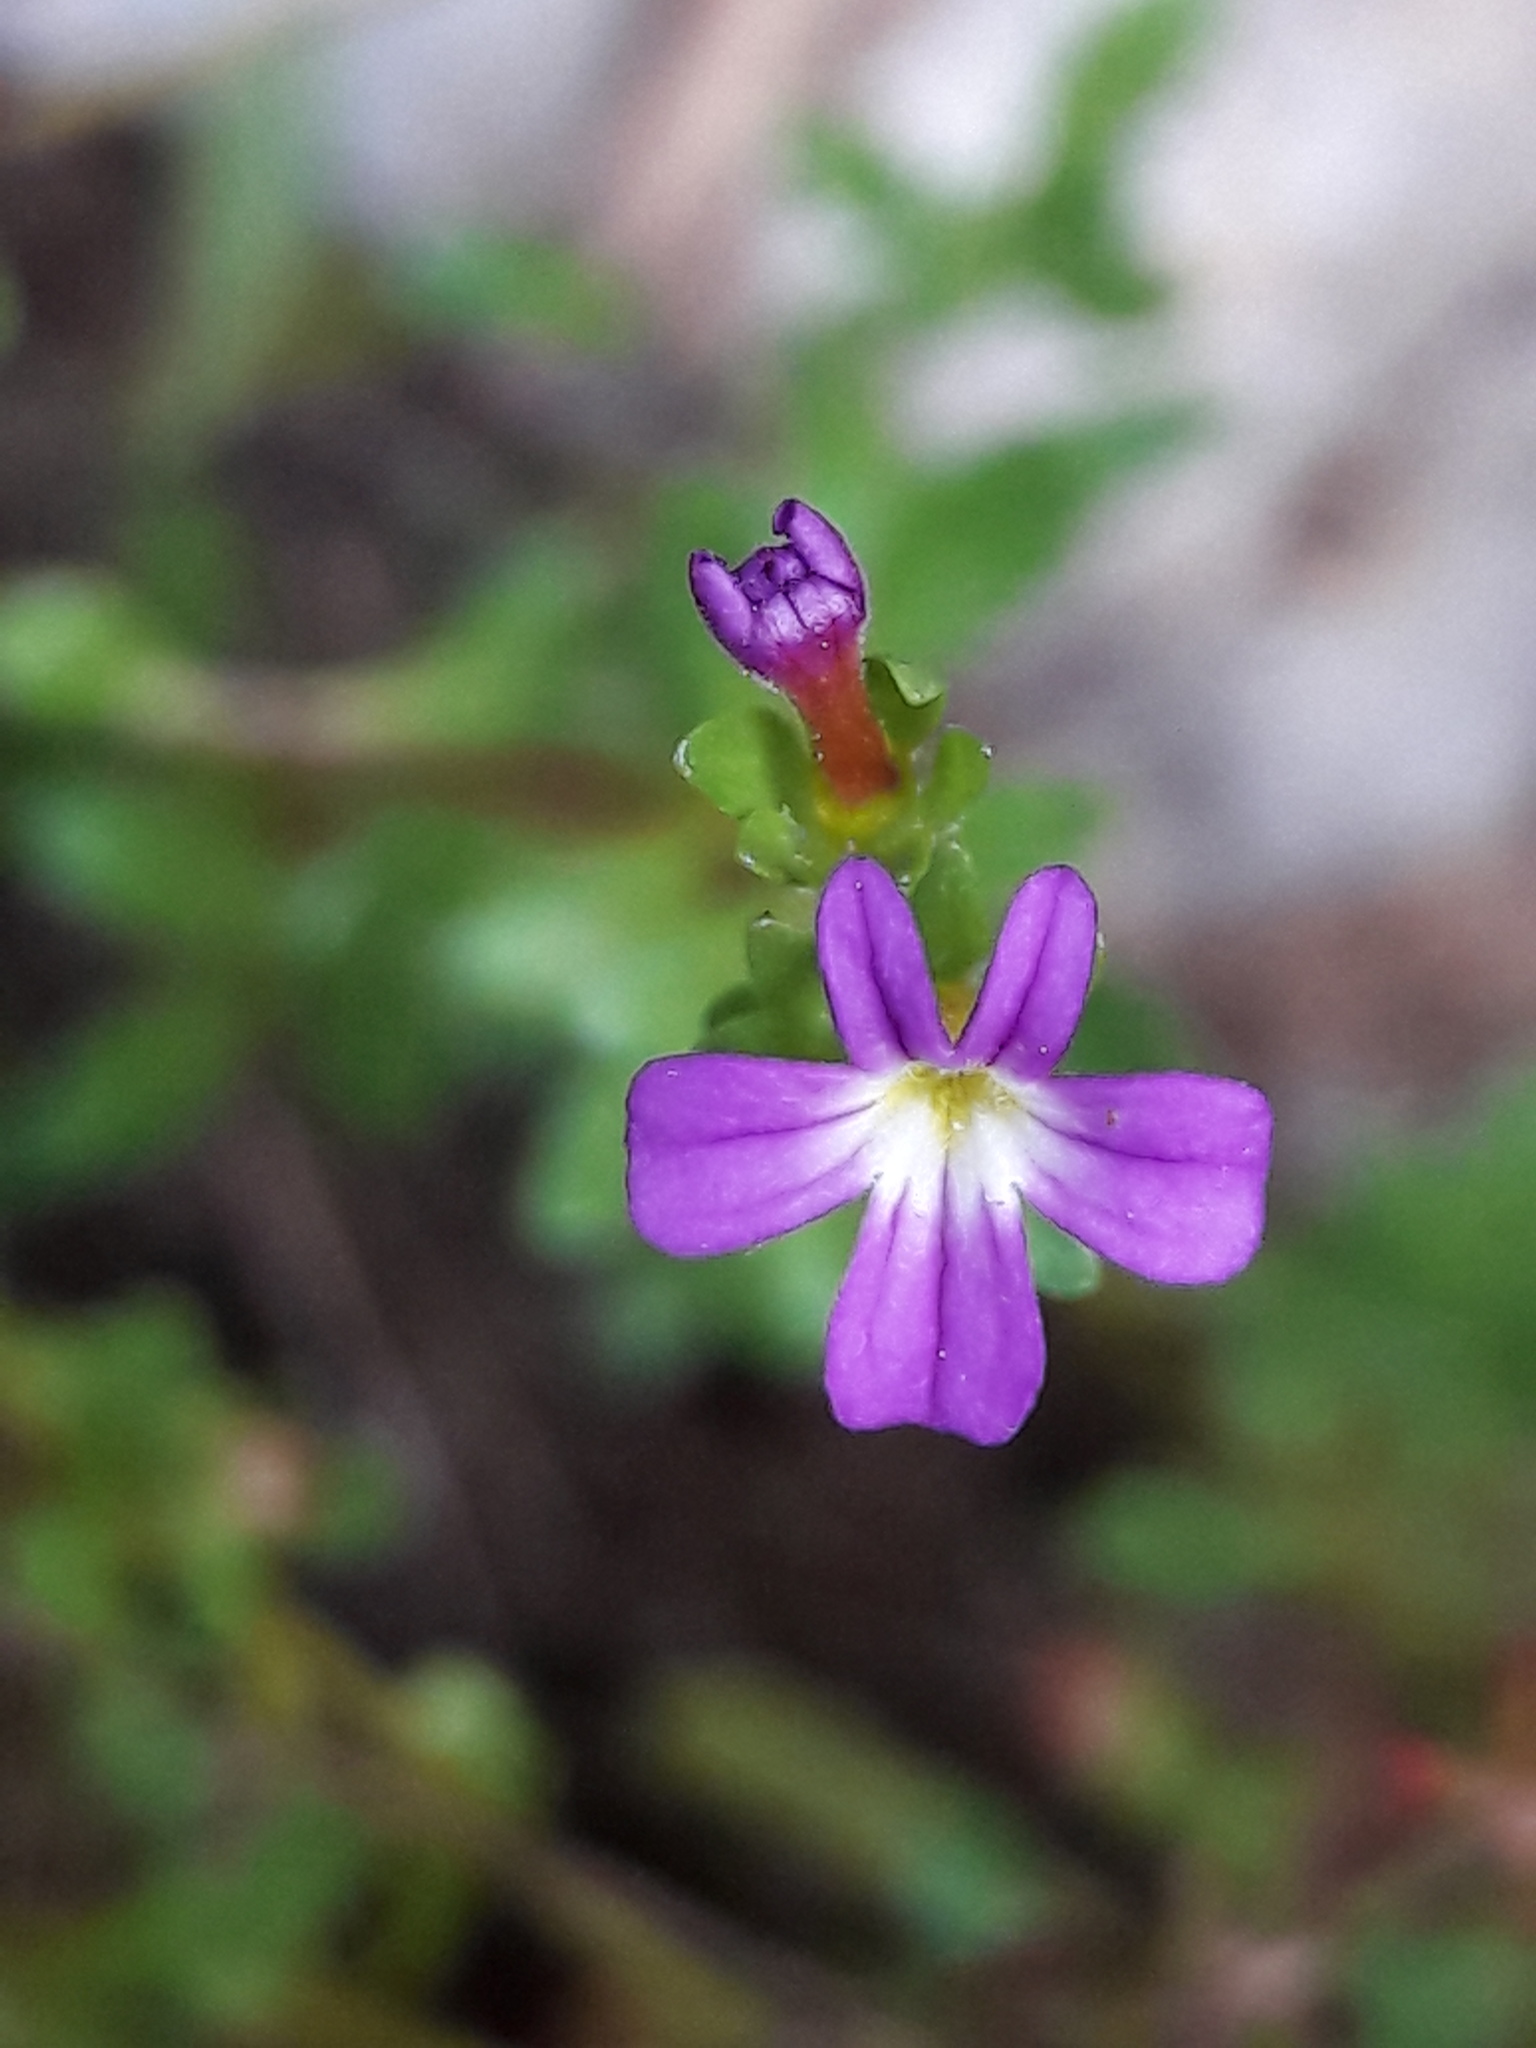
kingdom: Plantae
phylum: Tracheophyta
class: Magnoliopsida
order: Lamiales
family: Plantaginaceae
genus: Erinus
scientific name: Erinus alpinus
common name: Fairy foxglove
